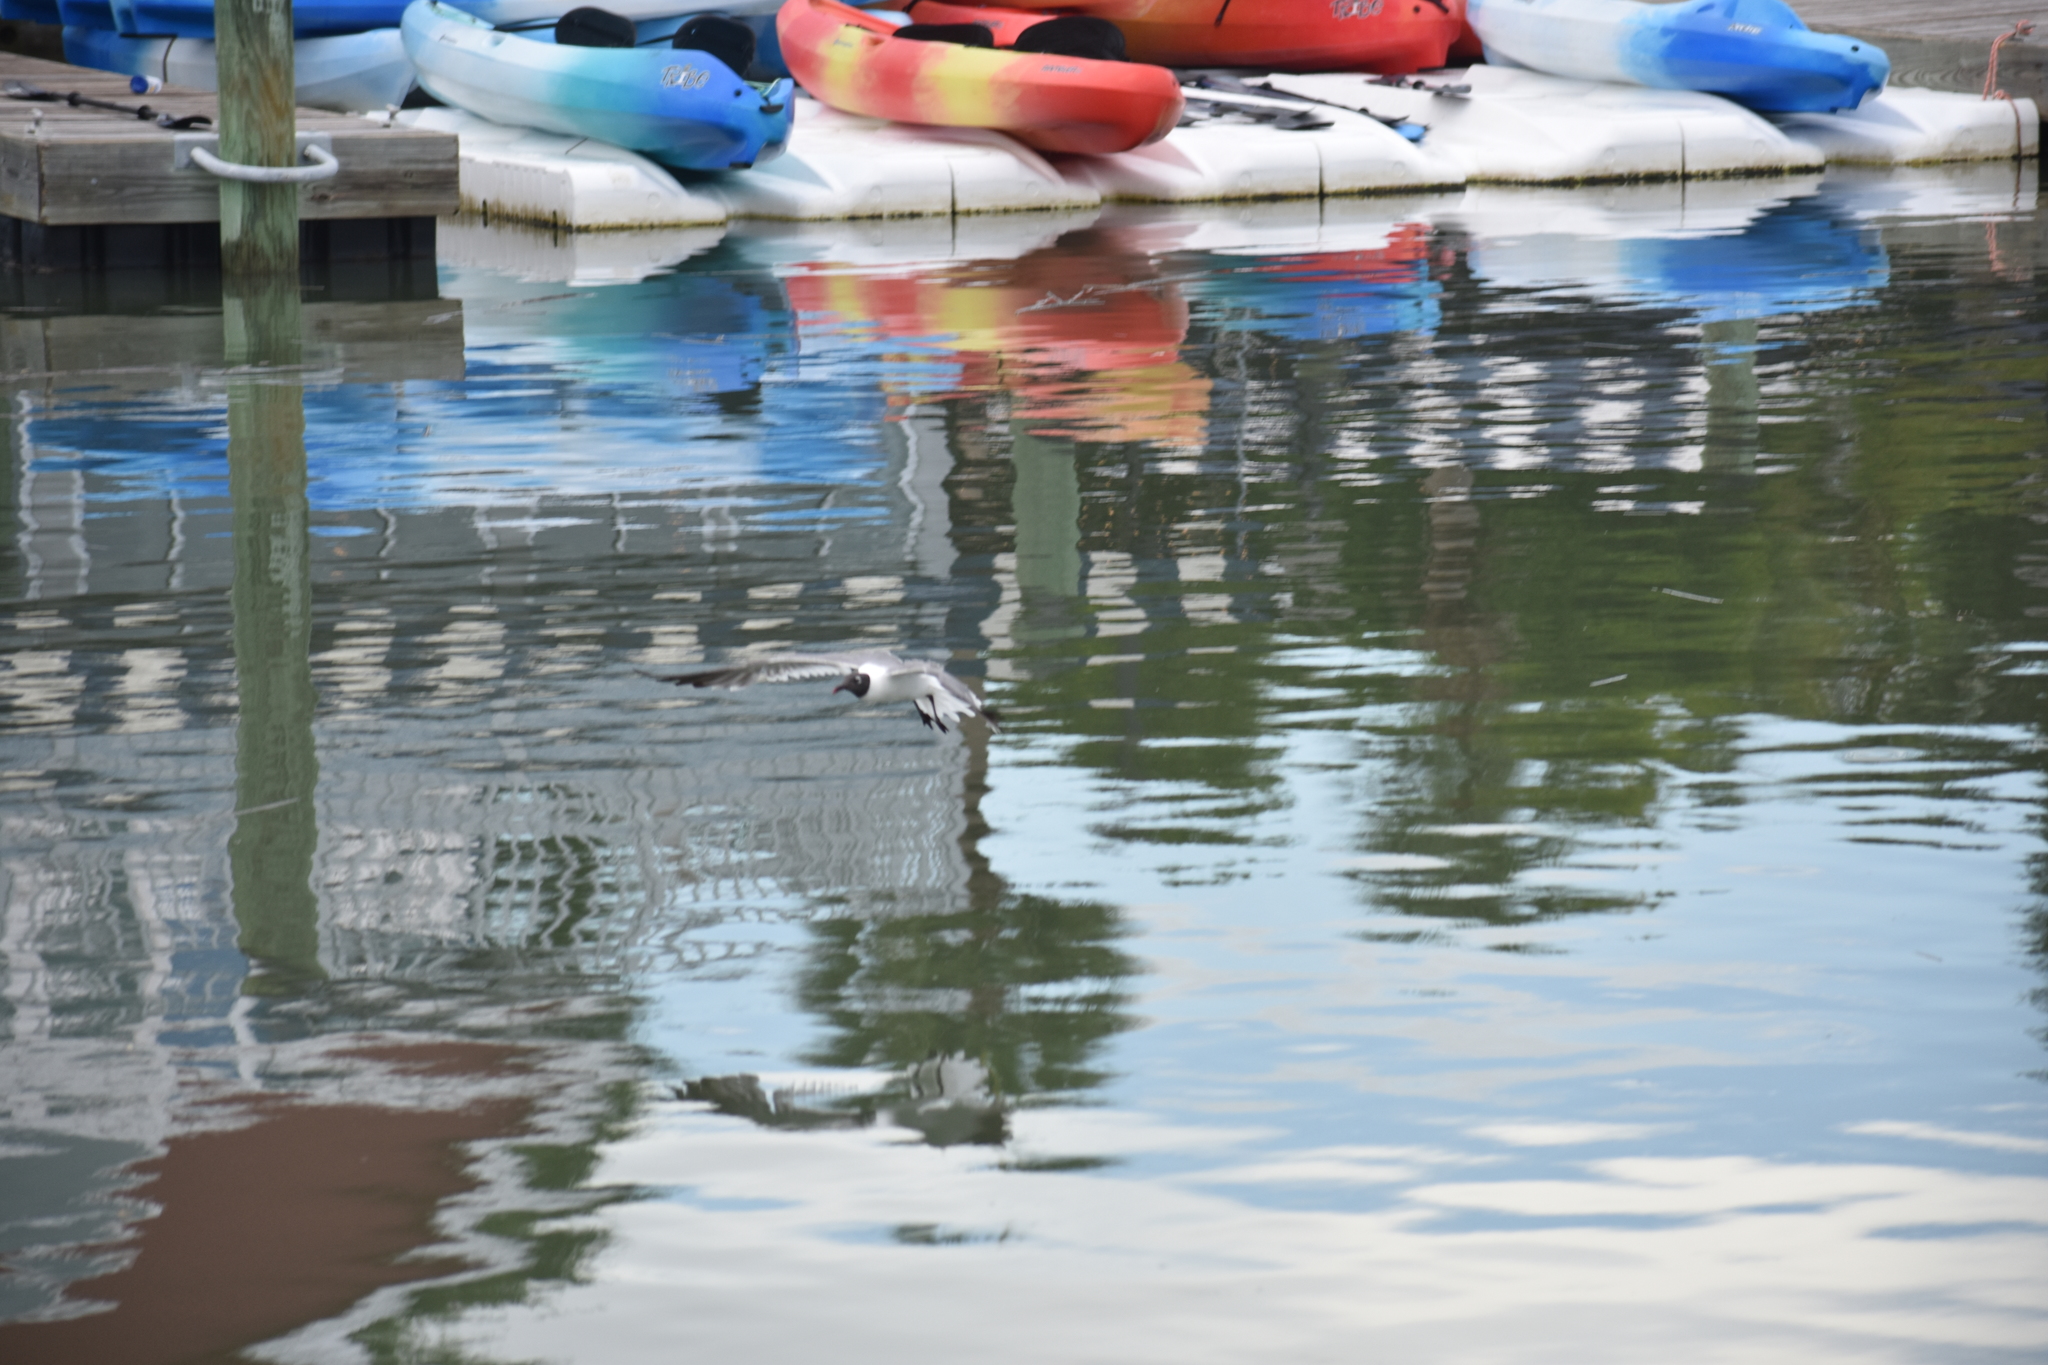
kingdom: Animalia
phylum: Chordata
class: Aves
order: Charadriiformes
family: Laridae
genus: Leucophaeus
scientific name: Leucophaeus atricilla
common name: Laughing gull
